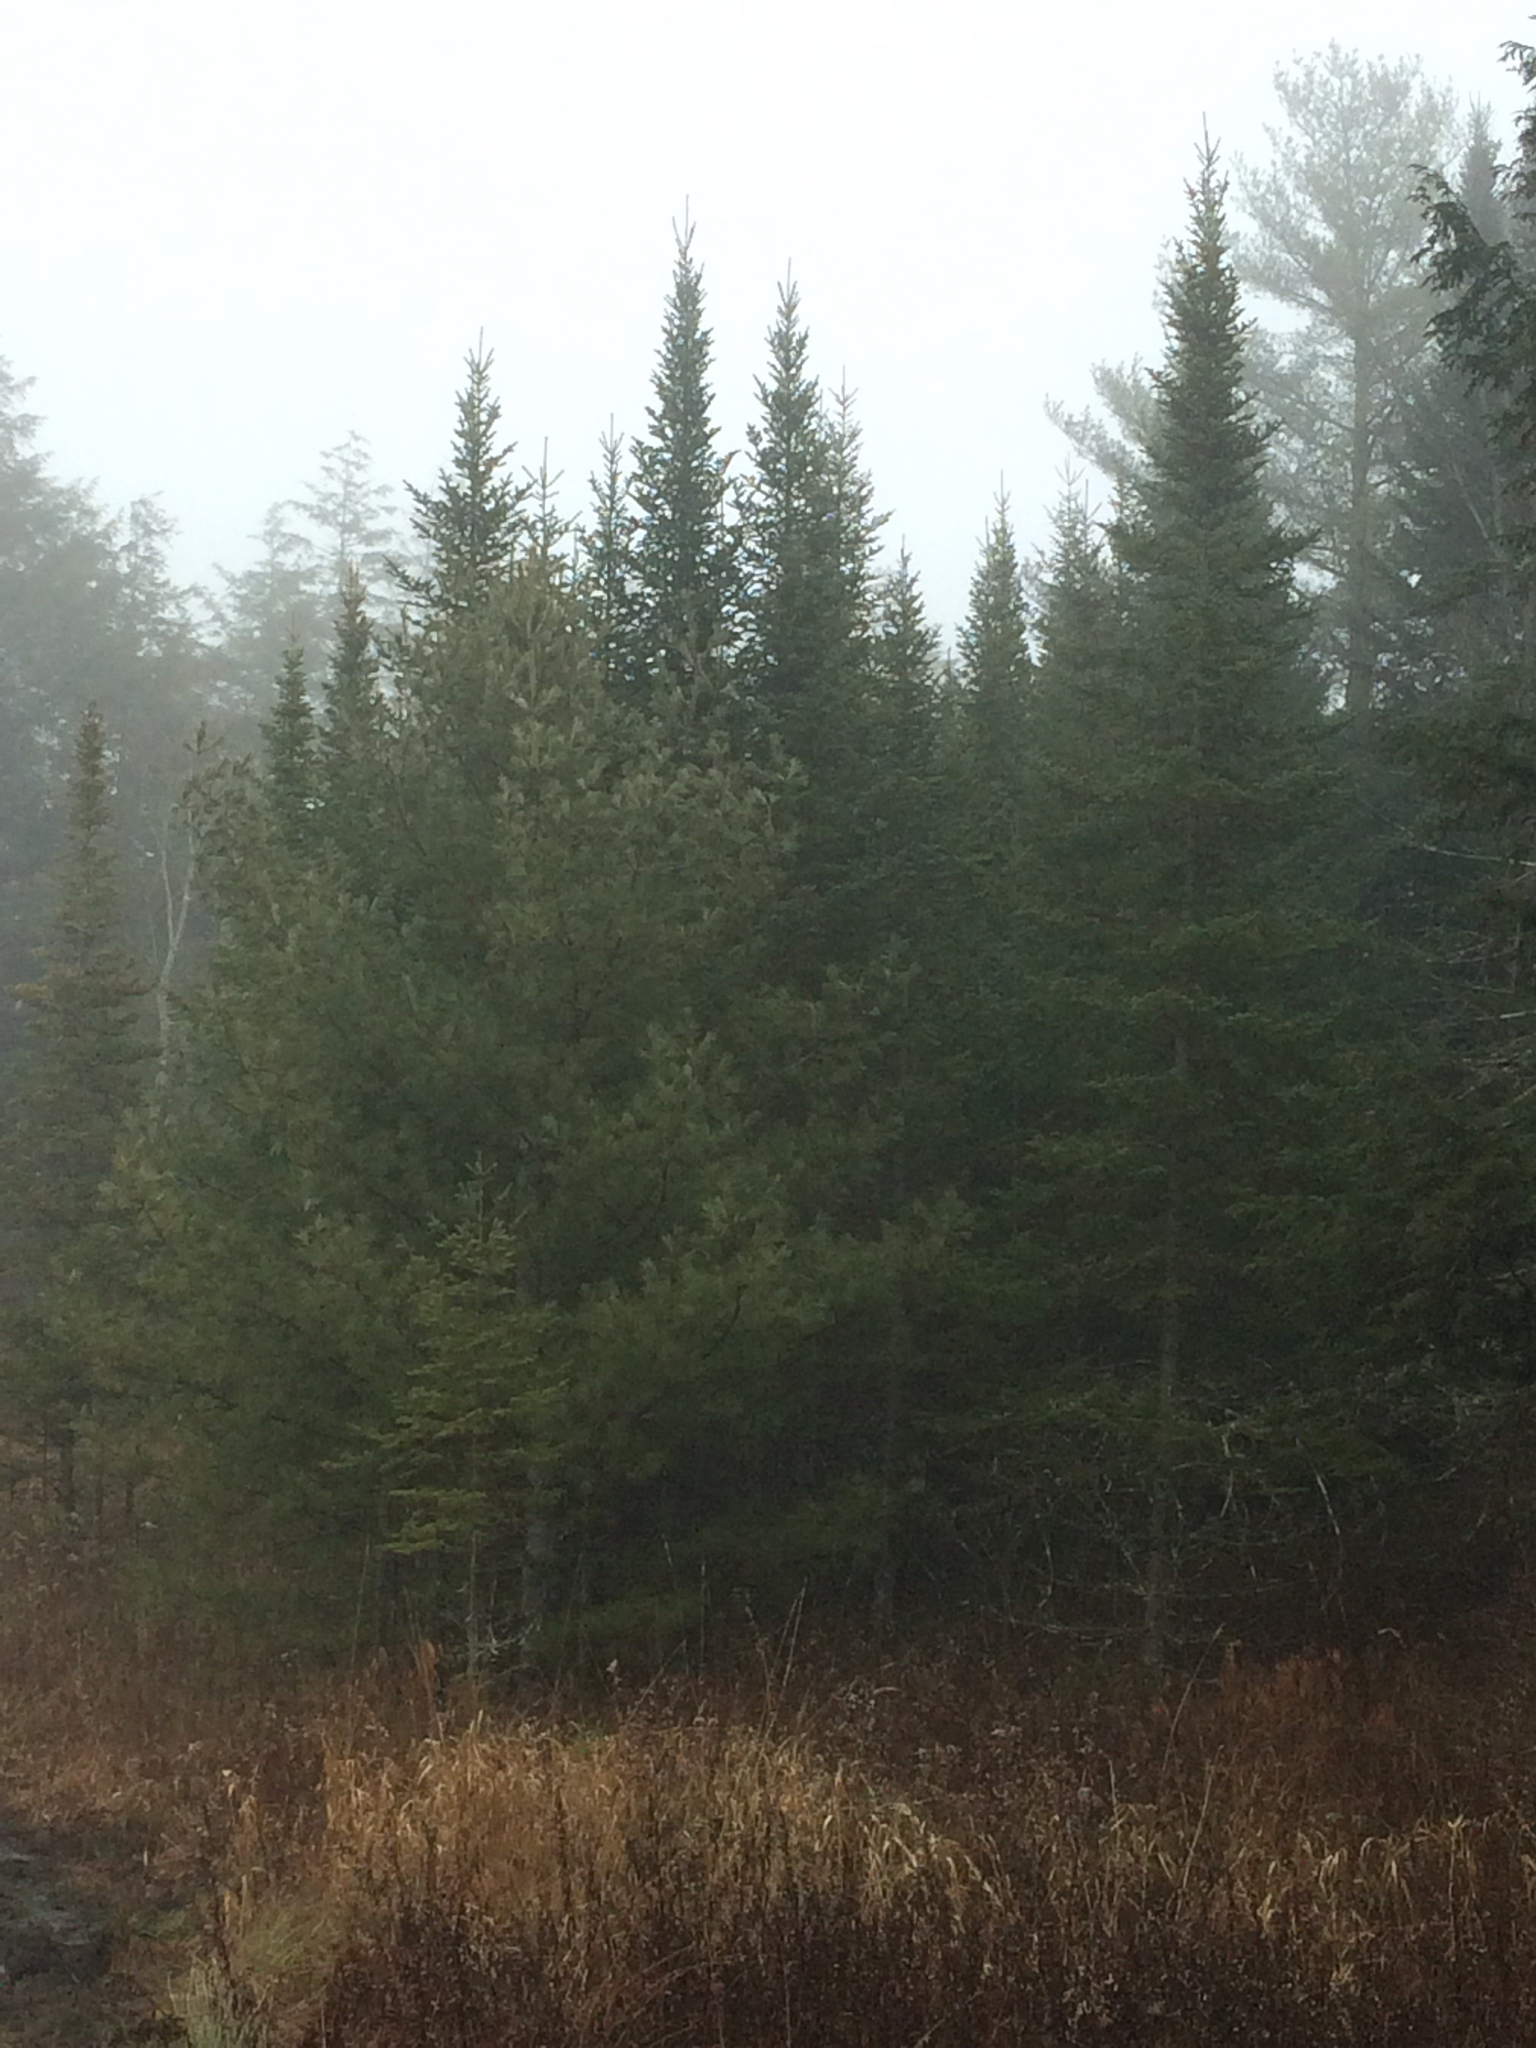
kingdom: Plantae
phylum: Tracheophyta
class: Pinopsida
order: Pinales
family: Pinaceae
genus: Abies
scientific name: Abies balsamea
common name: Balsam fir
